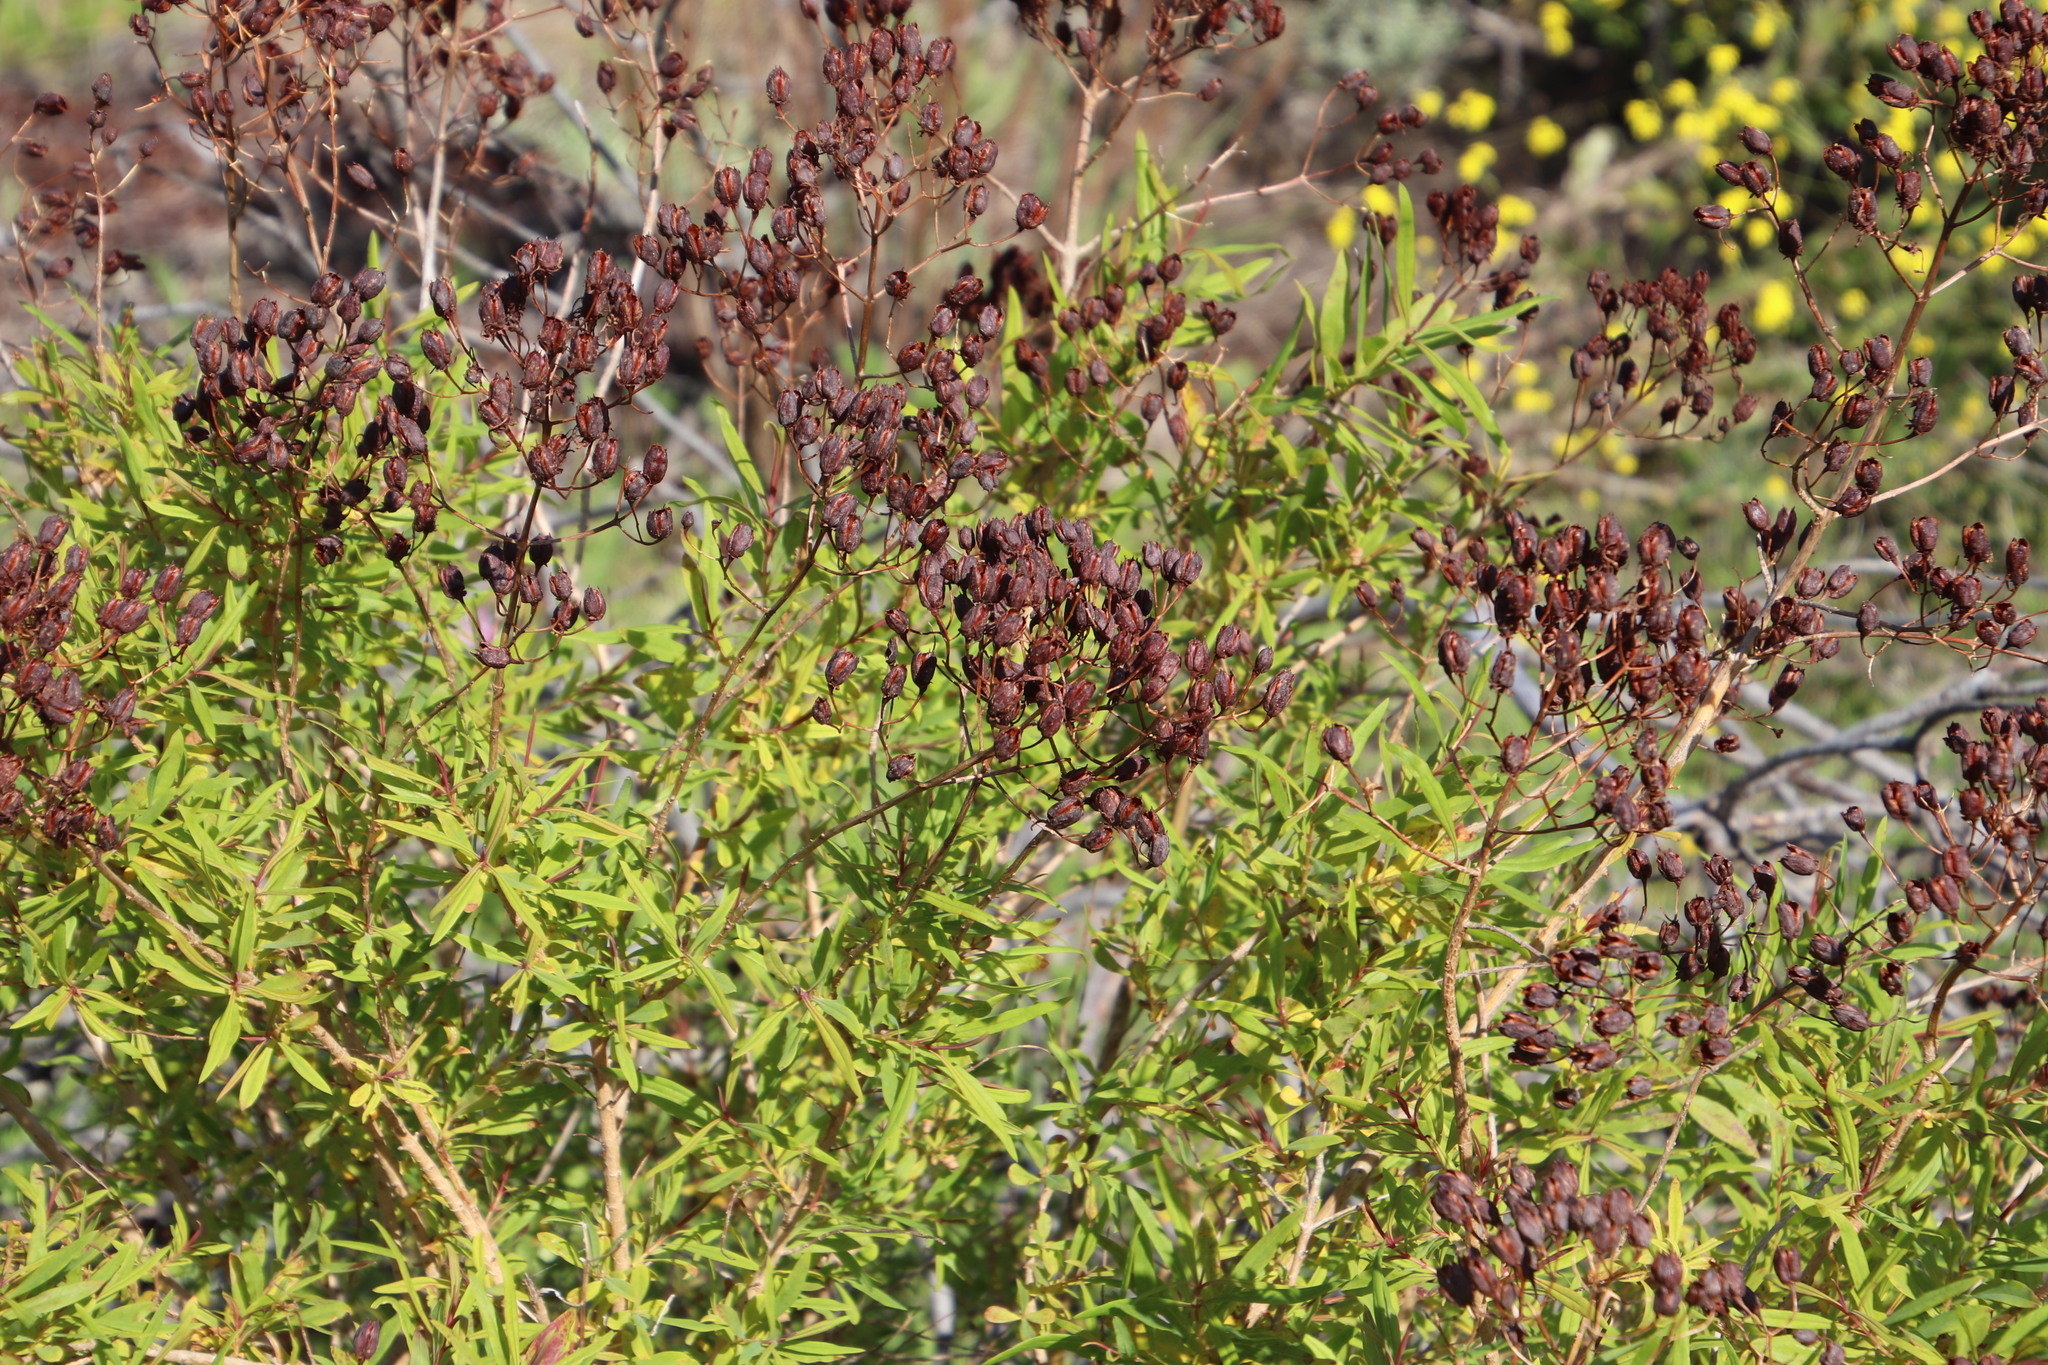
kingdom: Plantae
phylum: Tracheophyta
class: Magnoliopsida
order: Malpighiales
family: Hypericaceae
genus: Hypericum
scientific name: Hypericum canariense
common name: Canary island st. johnswort
